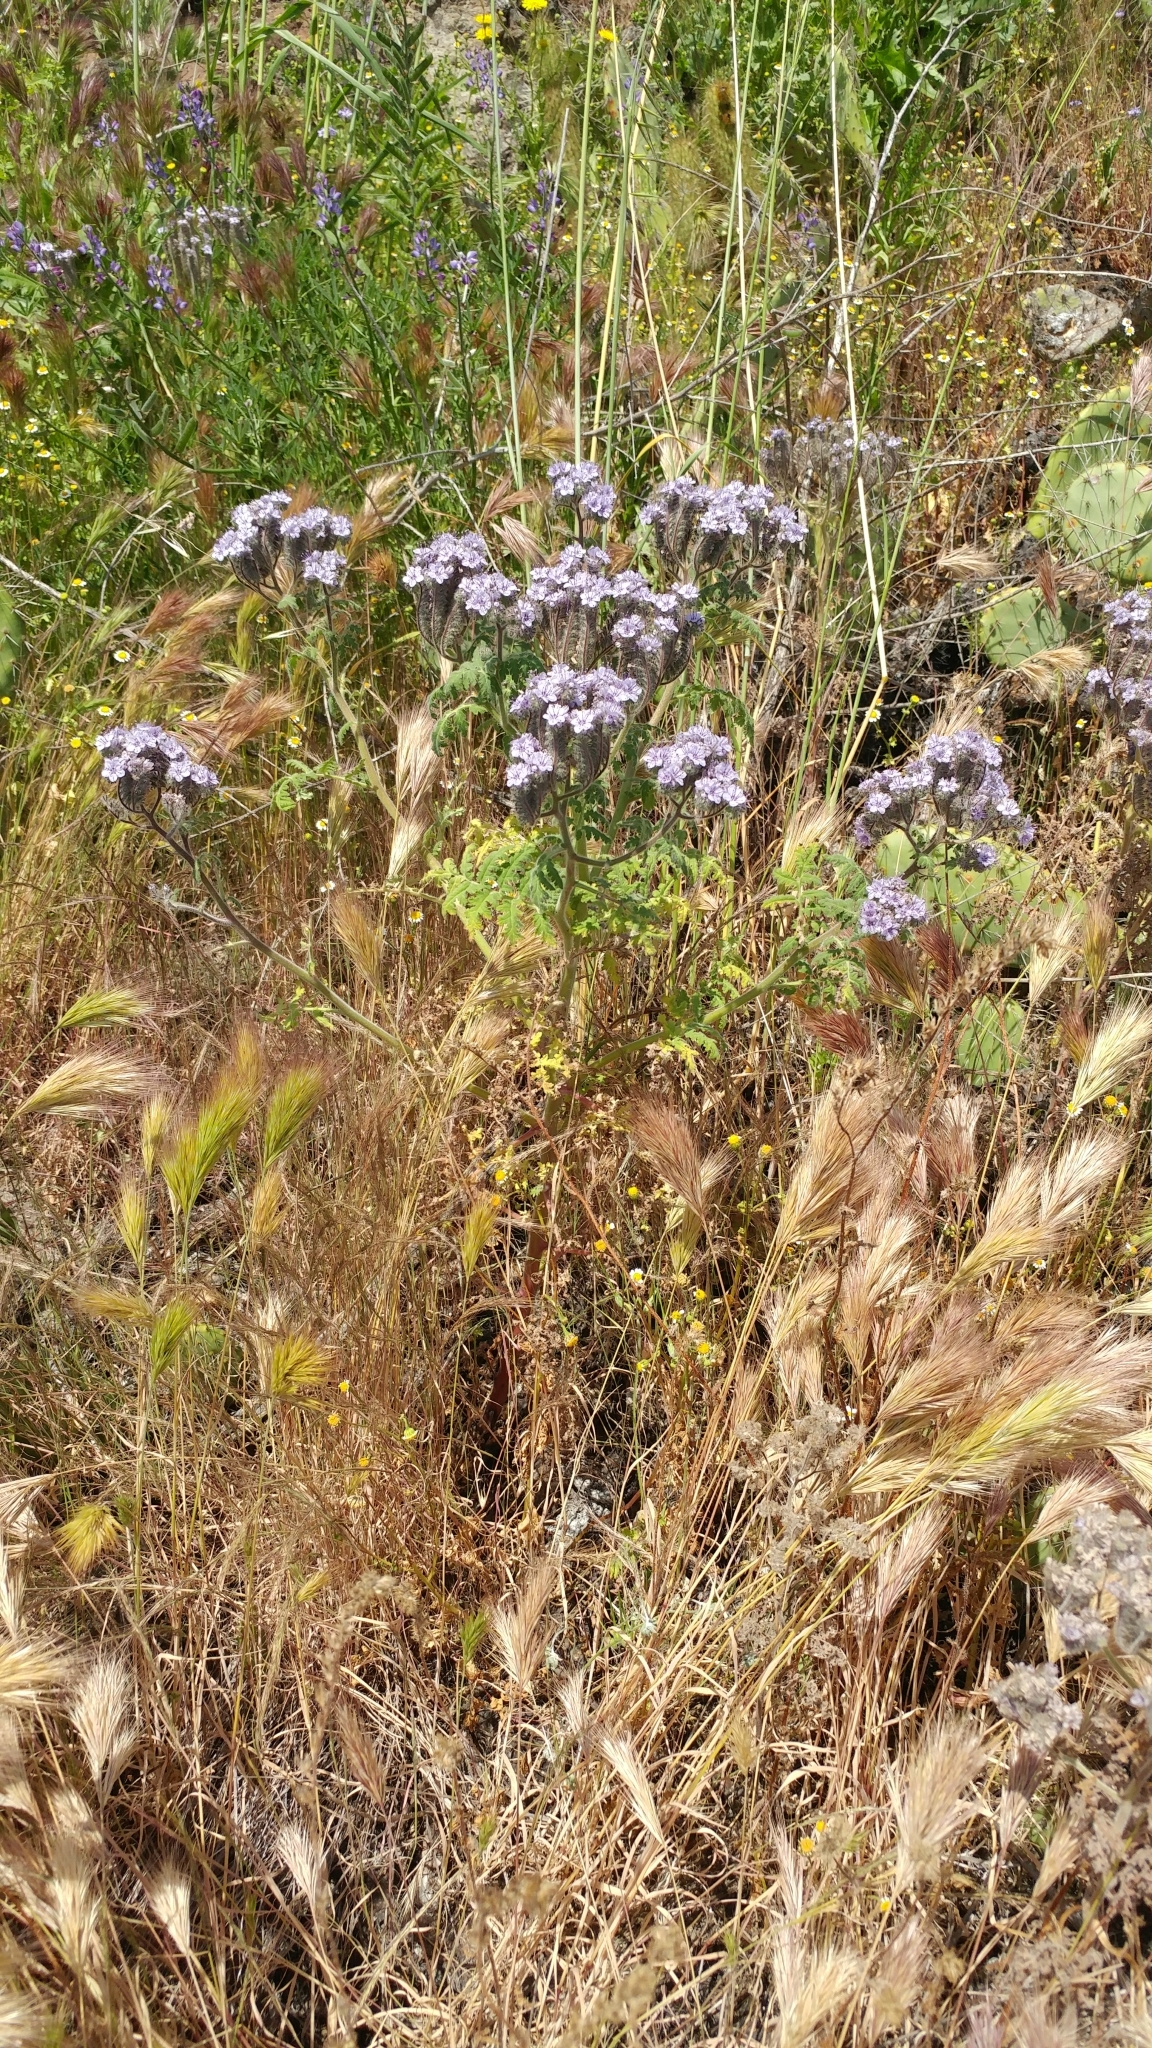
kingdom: Plantae
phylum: Tracheophyta
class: Magnoliopsida
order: Boraginales
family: Hydrophyllaceae
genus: Phacelia
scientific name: Phacelia floribunda
